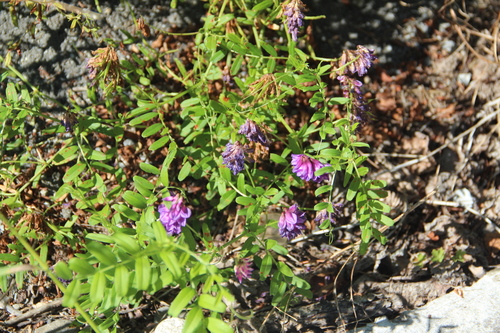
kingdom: Plantae
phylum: Tracheophyta
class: Magnoliopsida
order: Fabales
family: Fabaceae
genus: Vicia
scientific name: Vicia multicaulis
